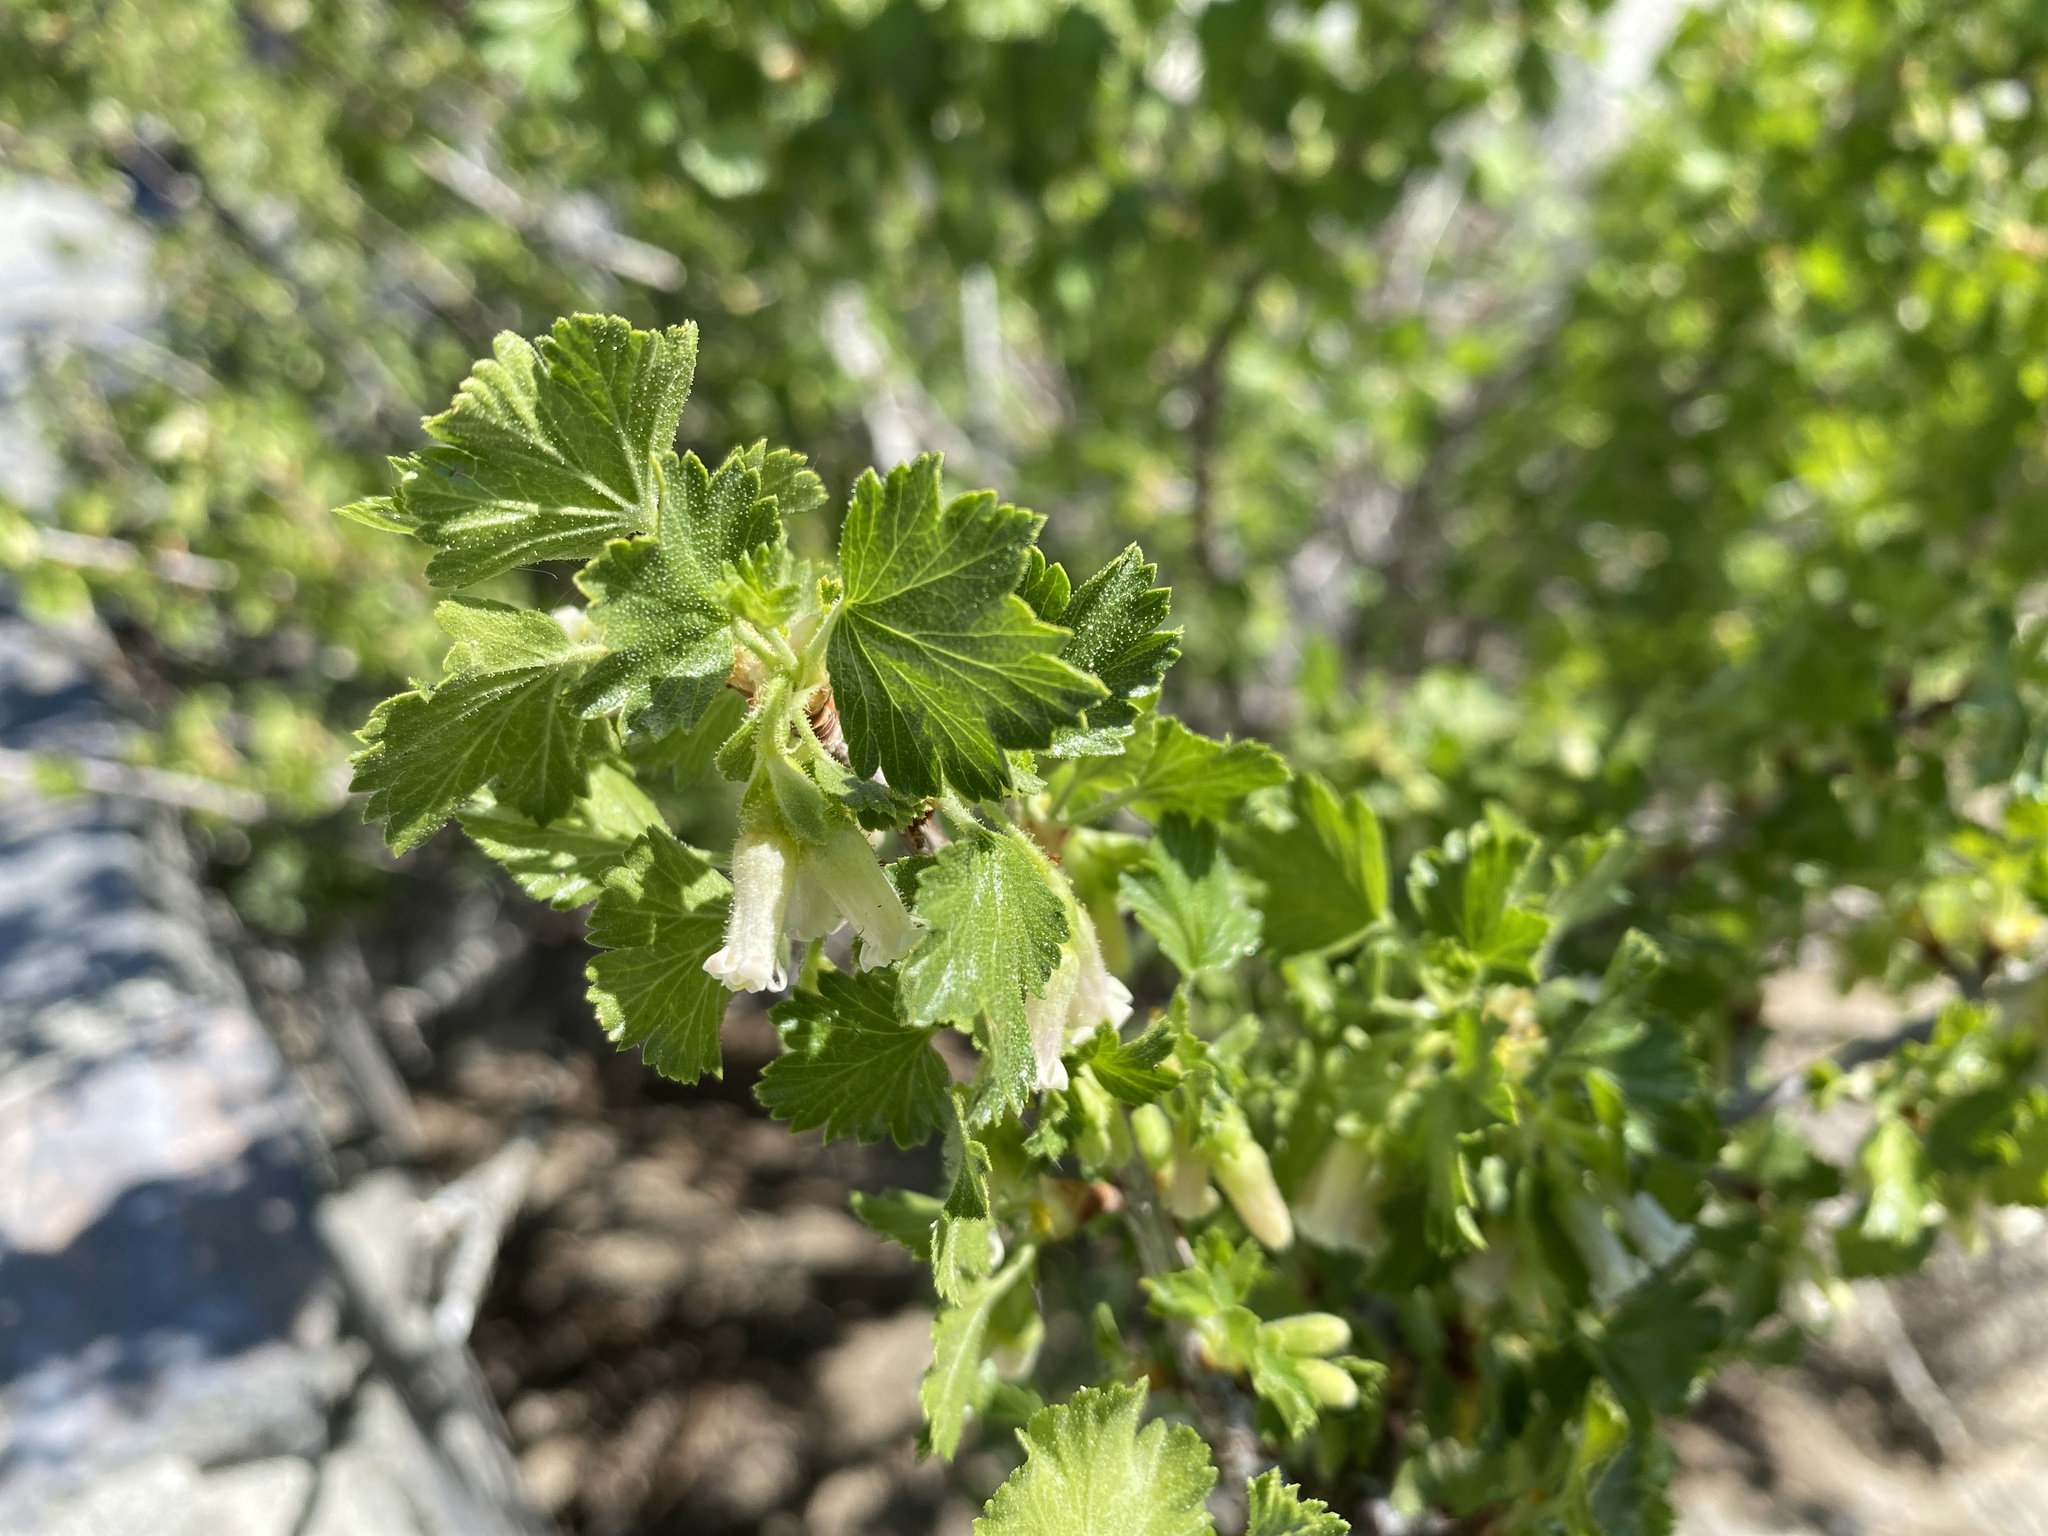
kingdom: Plantae
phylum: Tracheophyta
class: Magnoliopsida
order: Saxifragales
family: Grossulariaceae
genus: Ribes
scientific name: Ribes cereum
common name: Wax currant
